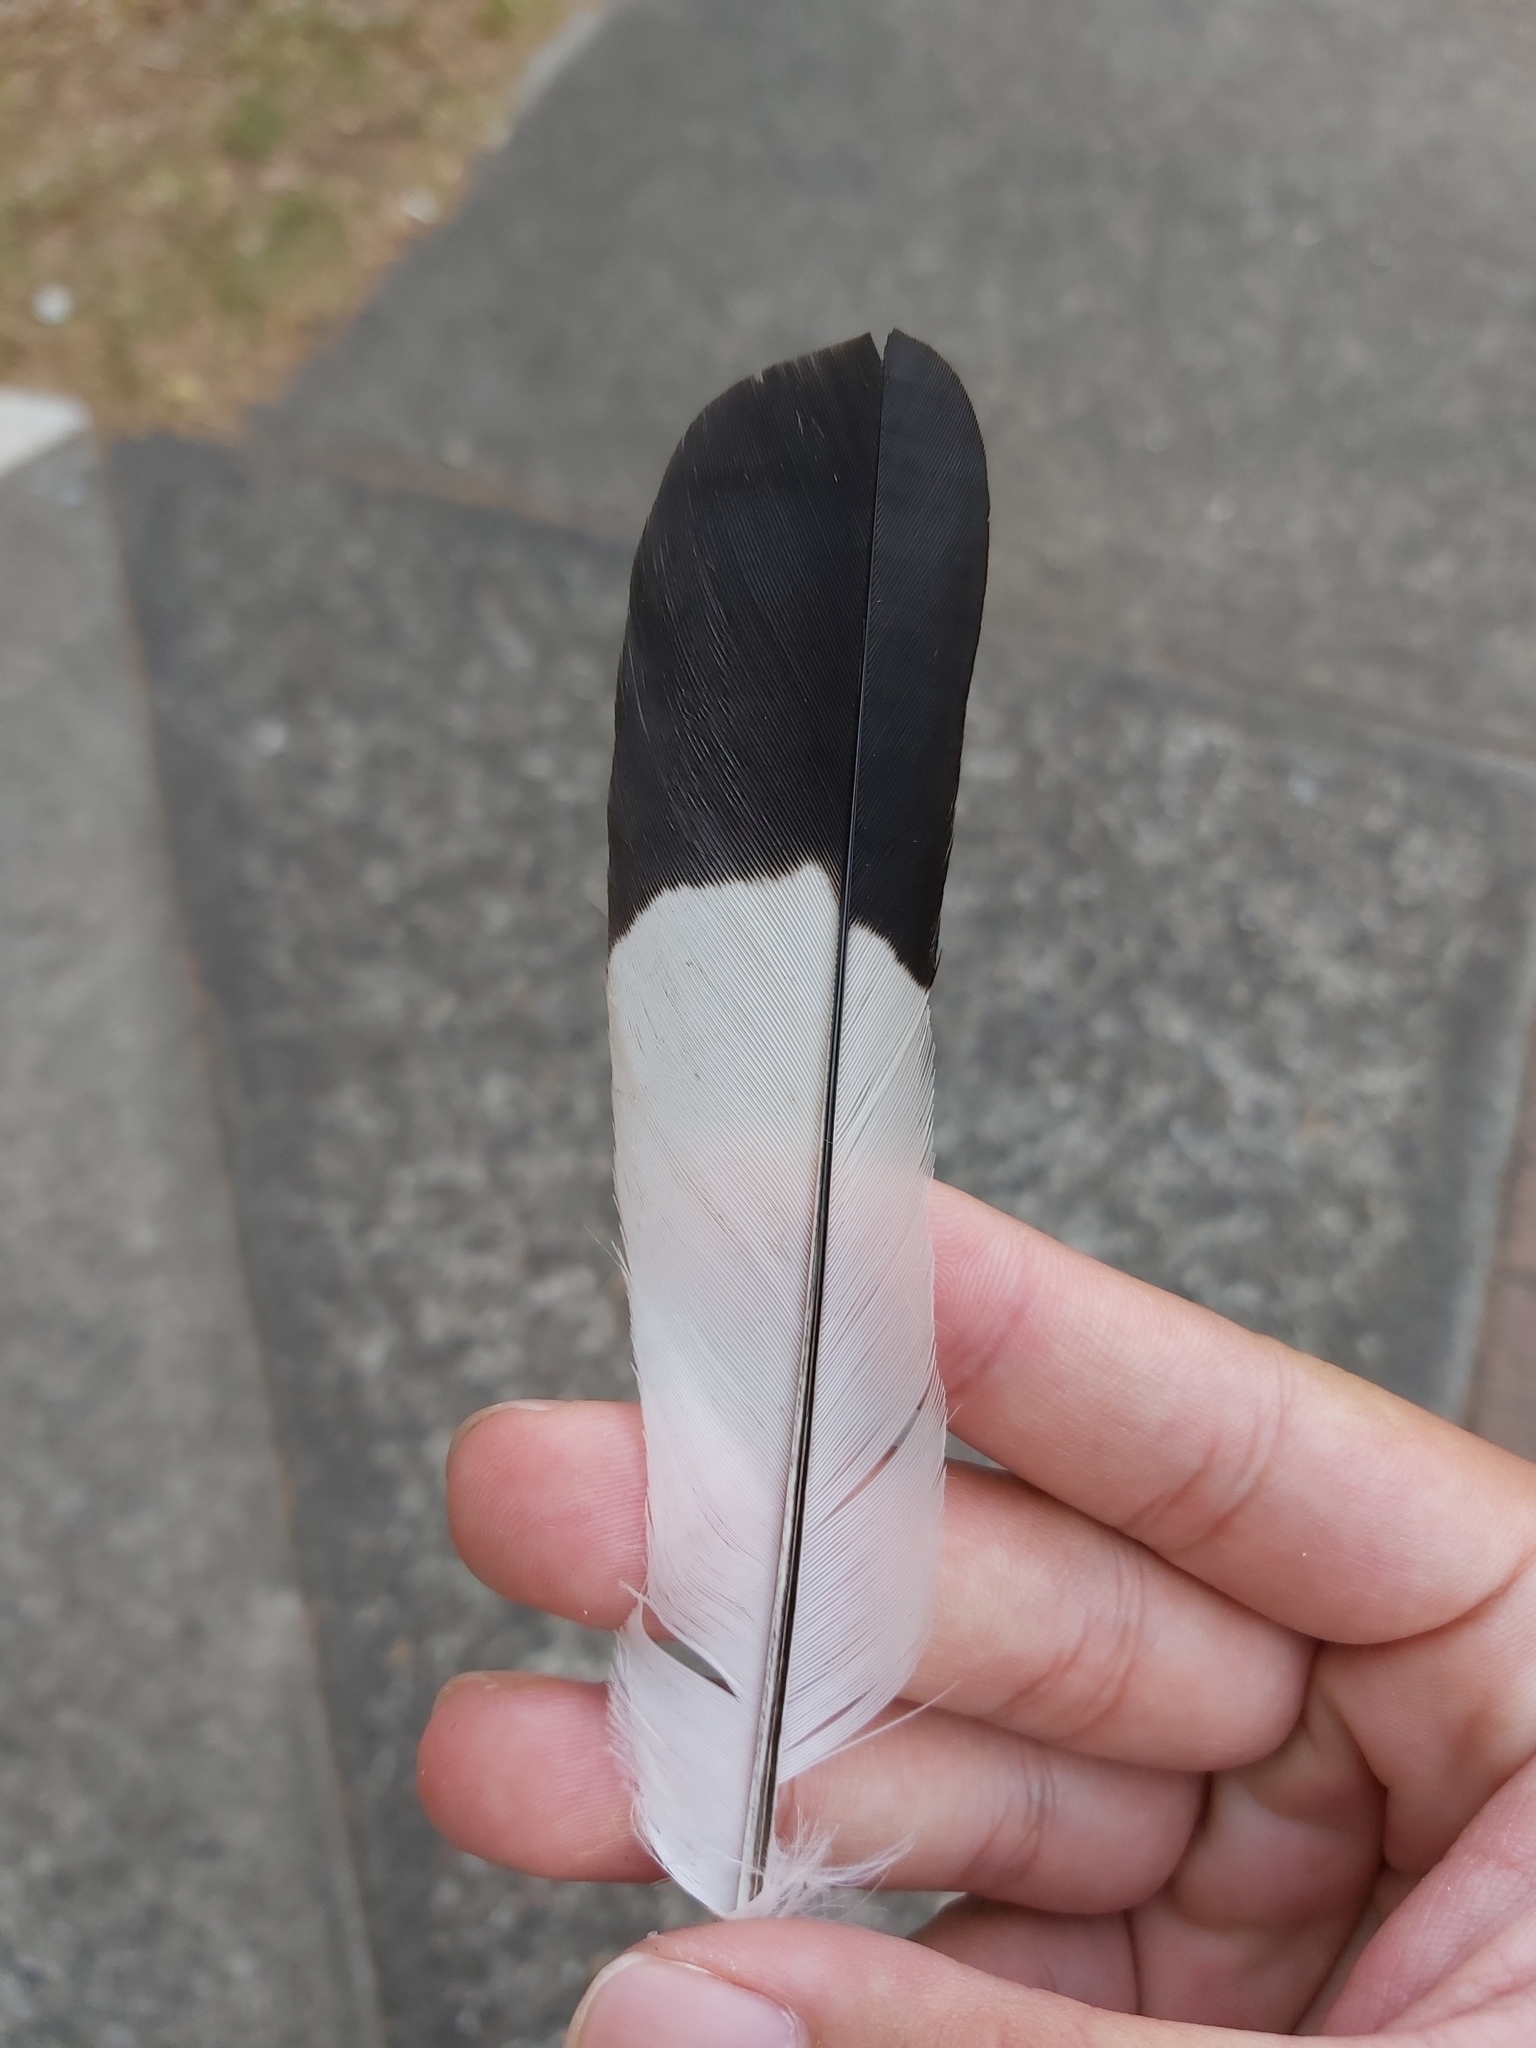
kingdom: Animalia
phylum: Chordata
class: Aves
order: Passeriformes
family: Cracticidae
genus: Gymnorhina
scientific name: Gymnorhina tibicen
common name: Australian magpie
